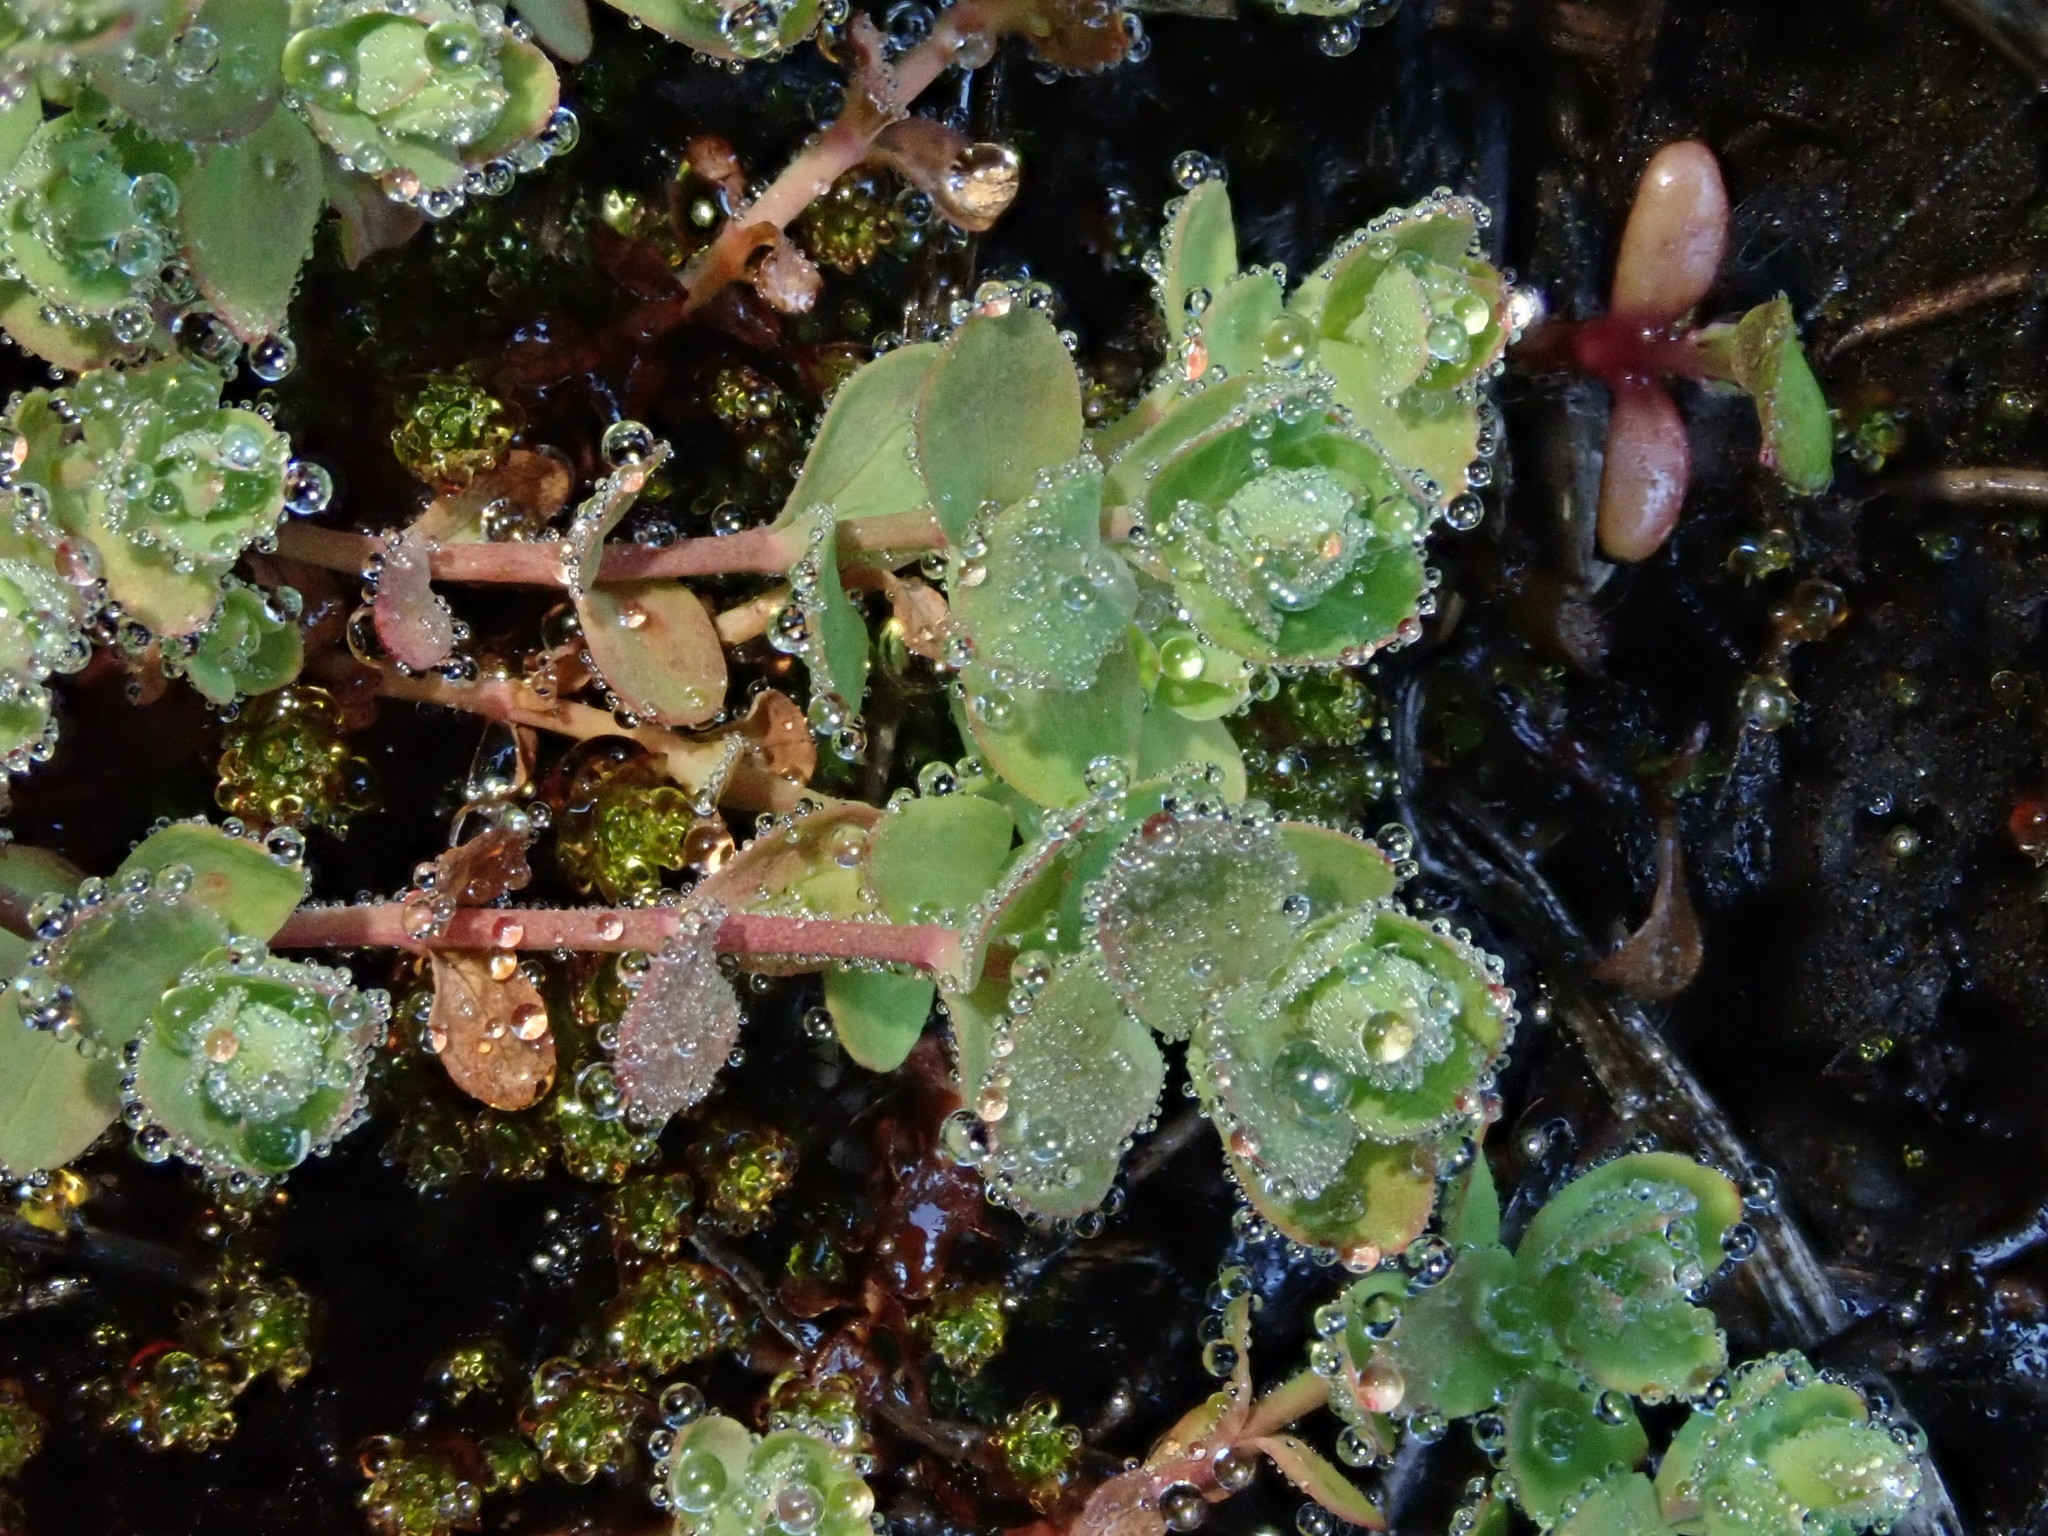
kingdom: Plantae
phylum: Tracheophyta
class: Magnoliopsida
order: Malpighiales
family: Hypericaceae
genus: Hypericum
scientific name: Hypericum anagalloides
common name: Bog st. john's-wort
